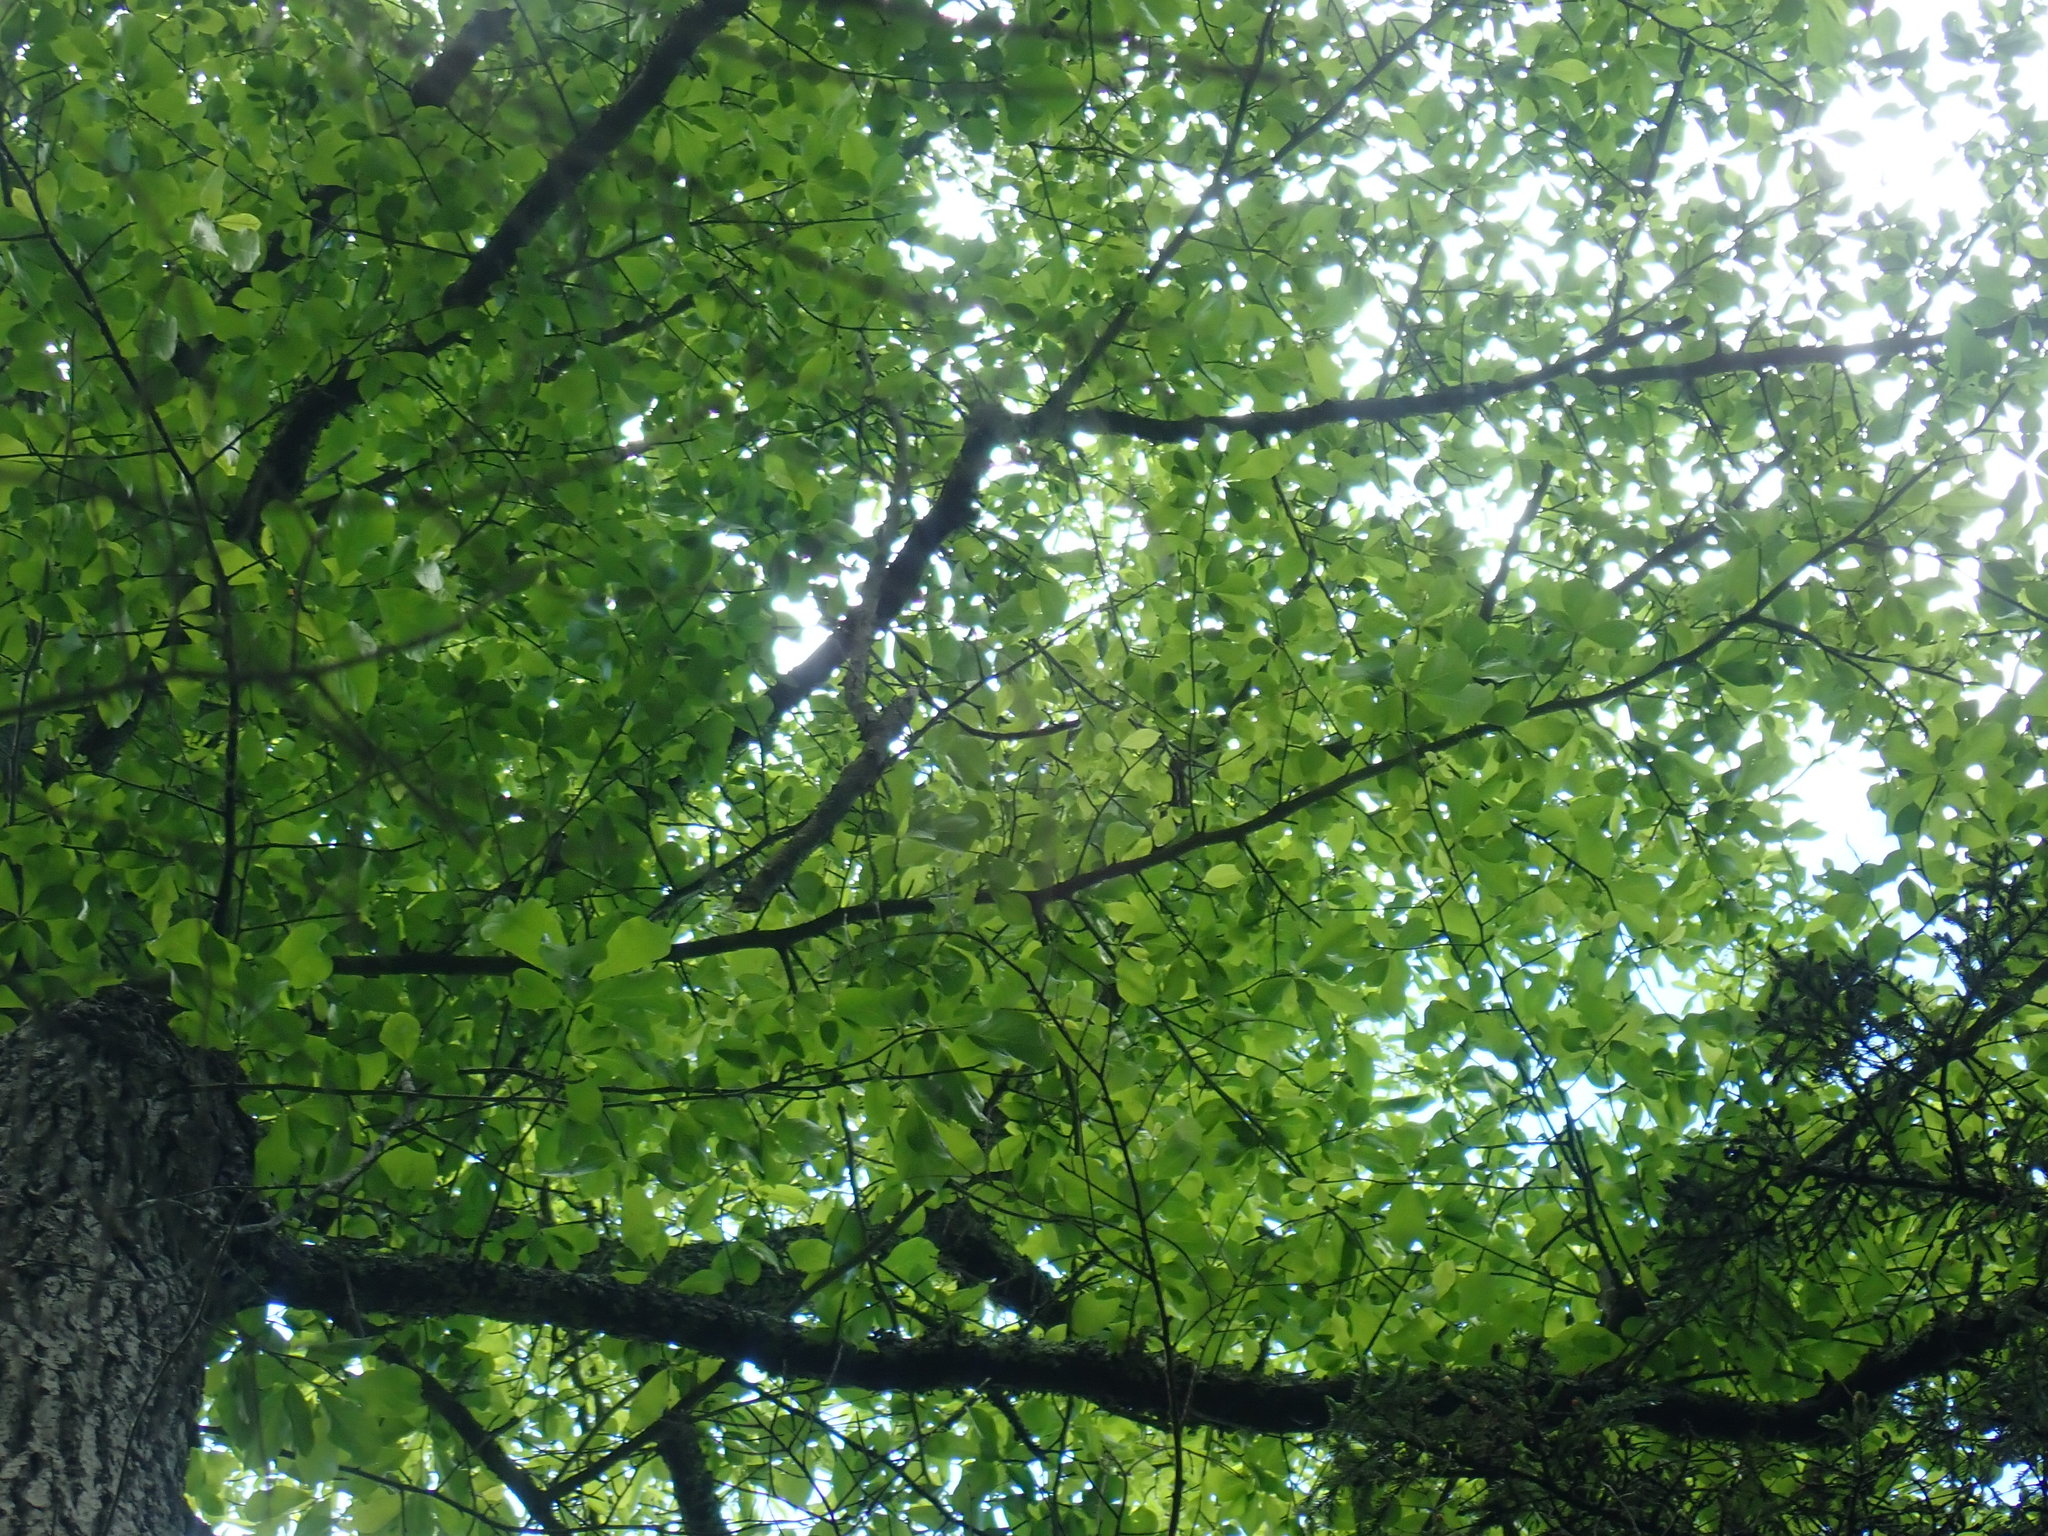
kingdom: Plantae
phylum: Tracheophyta
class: Magnoliopsida
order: Cornales
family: Nyssaceae
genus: Nyssa
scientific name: Nyssa sylvatica
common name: Black tupelo
